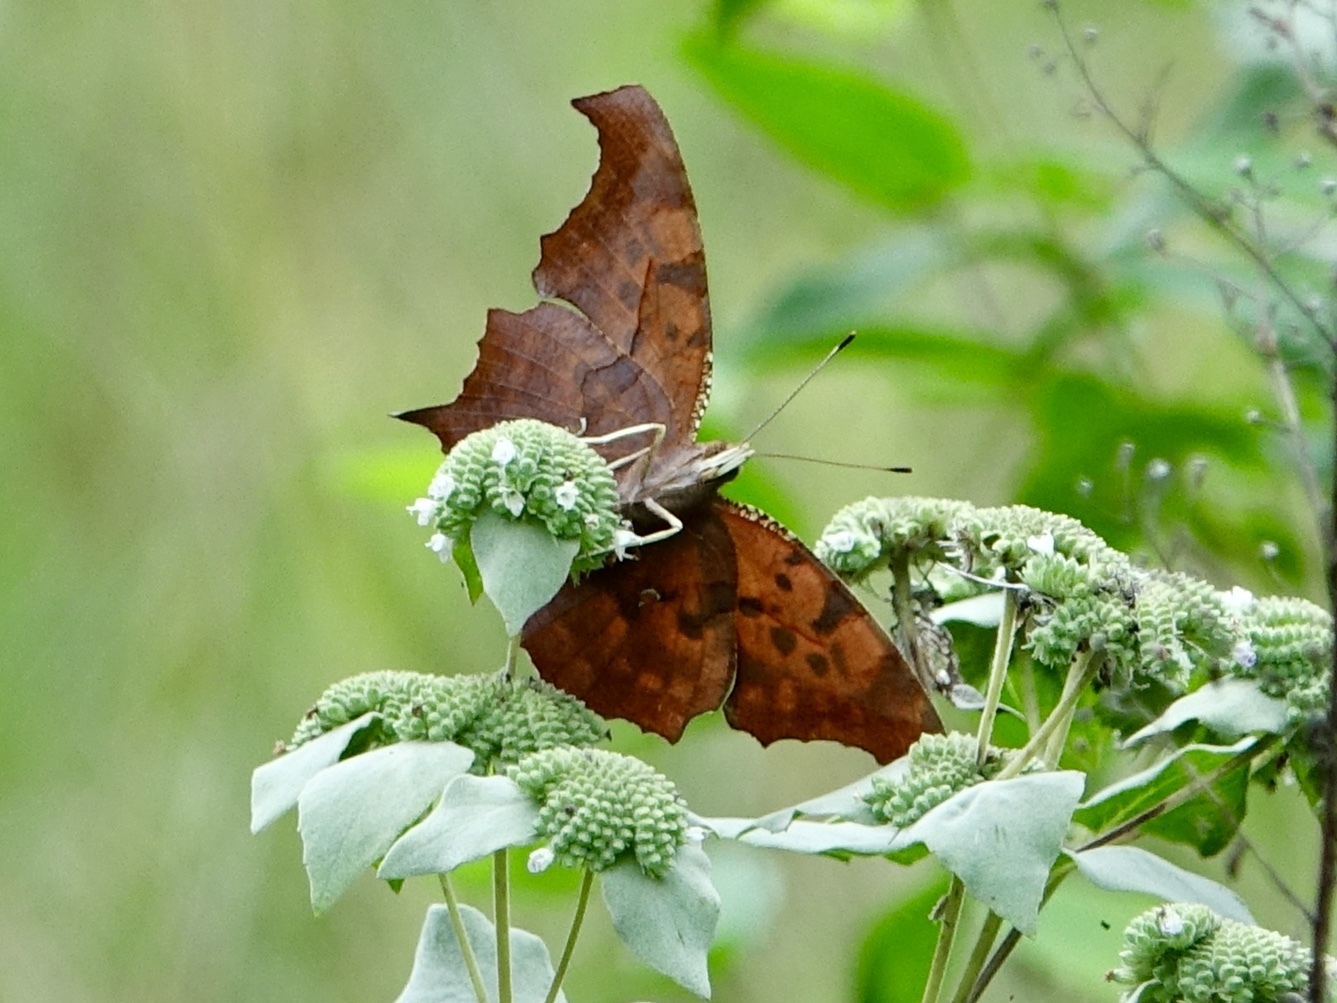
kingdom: Animalia
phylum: Arthropoda
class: Insecta
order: Lepidoptera
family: Nymphalidae
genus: Polygonia
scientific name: Polygonia comma
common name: Eastern comma
